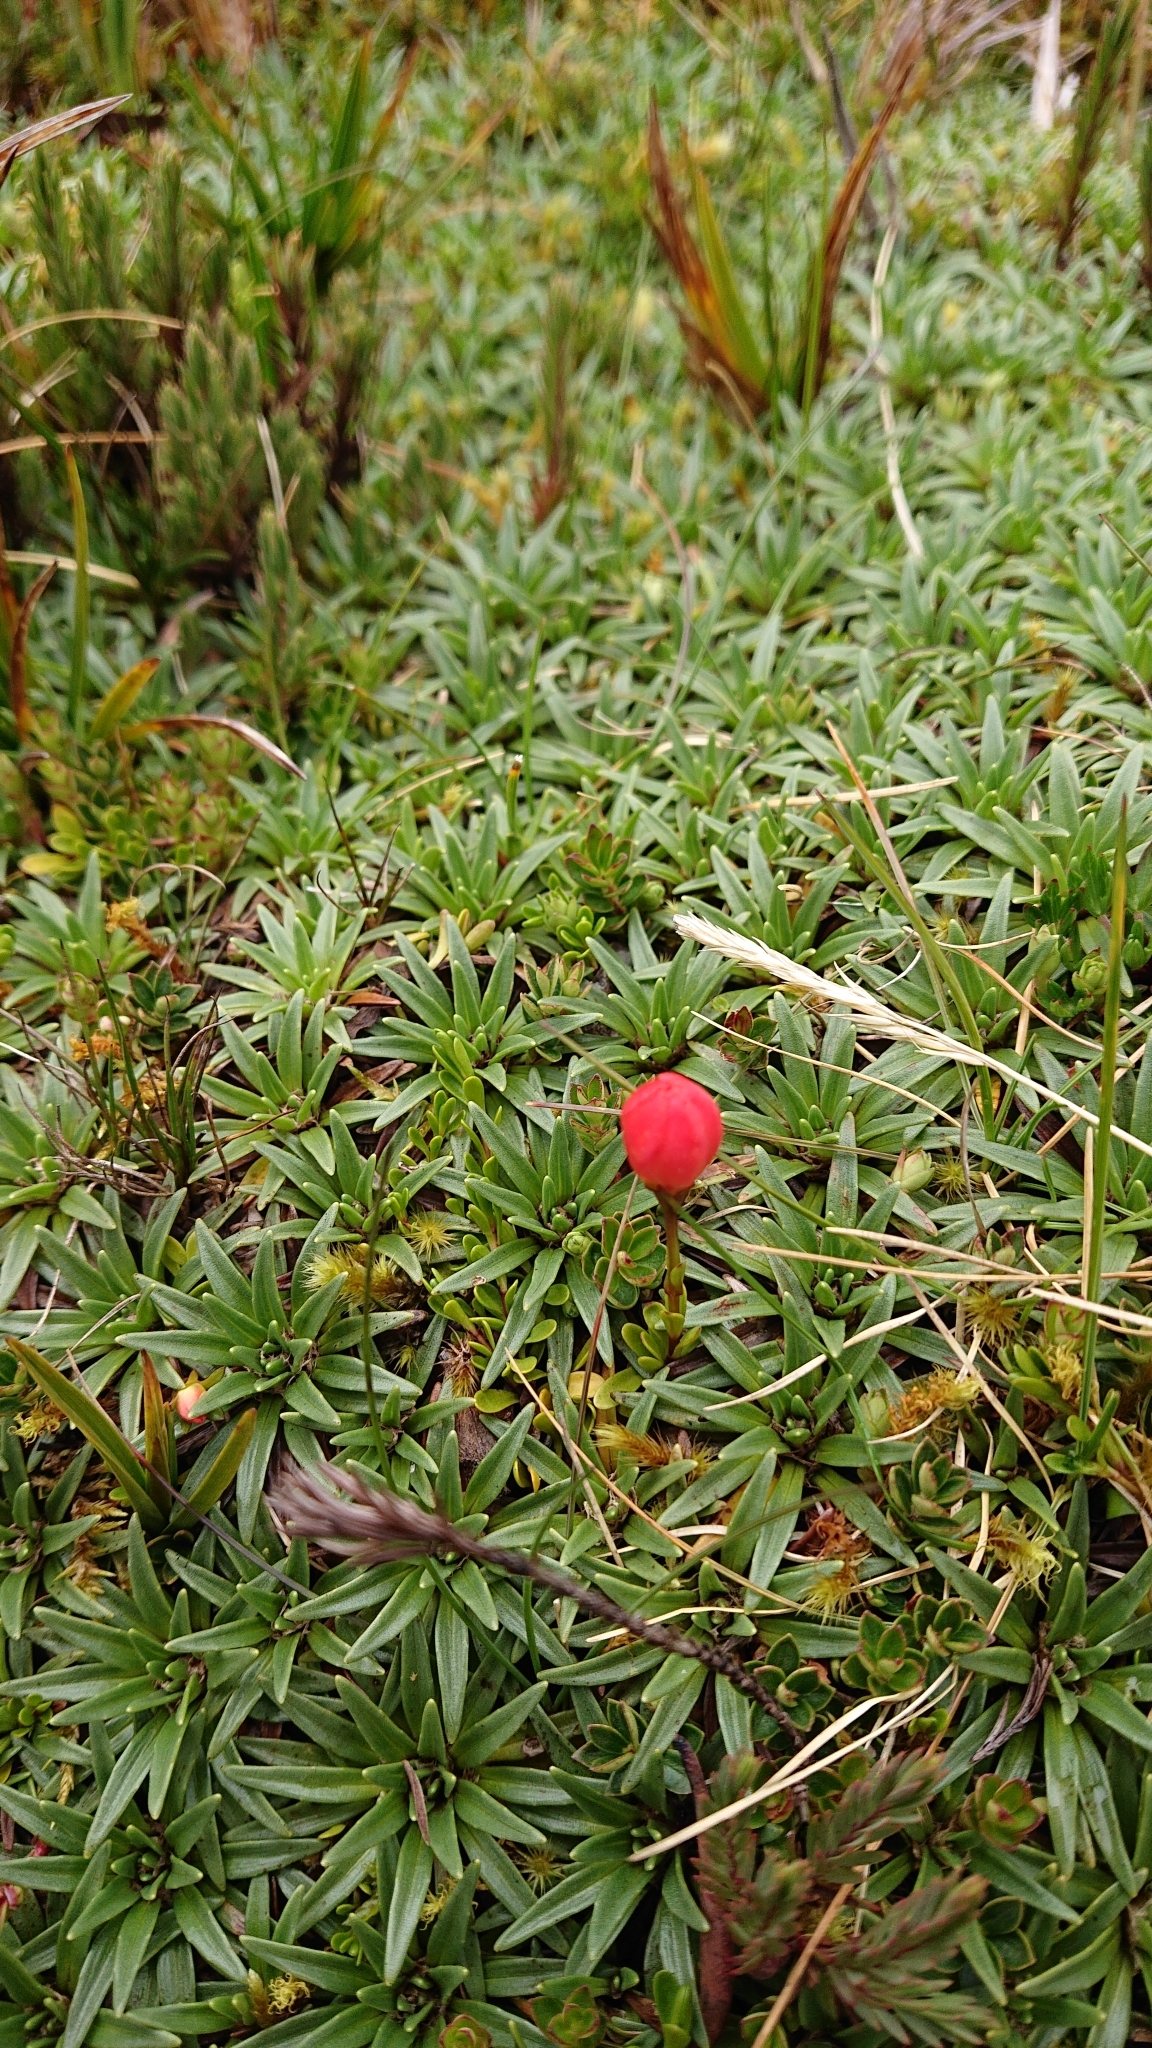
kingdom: Plantae
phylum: Tracheophyta
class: Magnoliopsida
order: Gentianales
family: Gentianaceae
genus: Gentianella
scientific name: Gentianella rupicola
